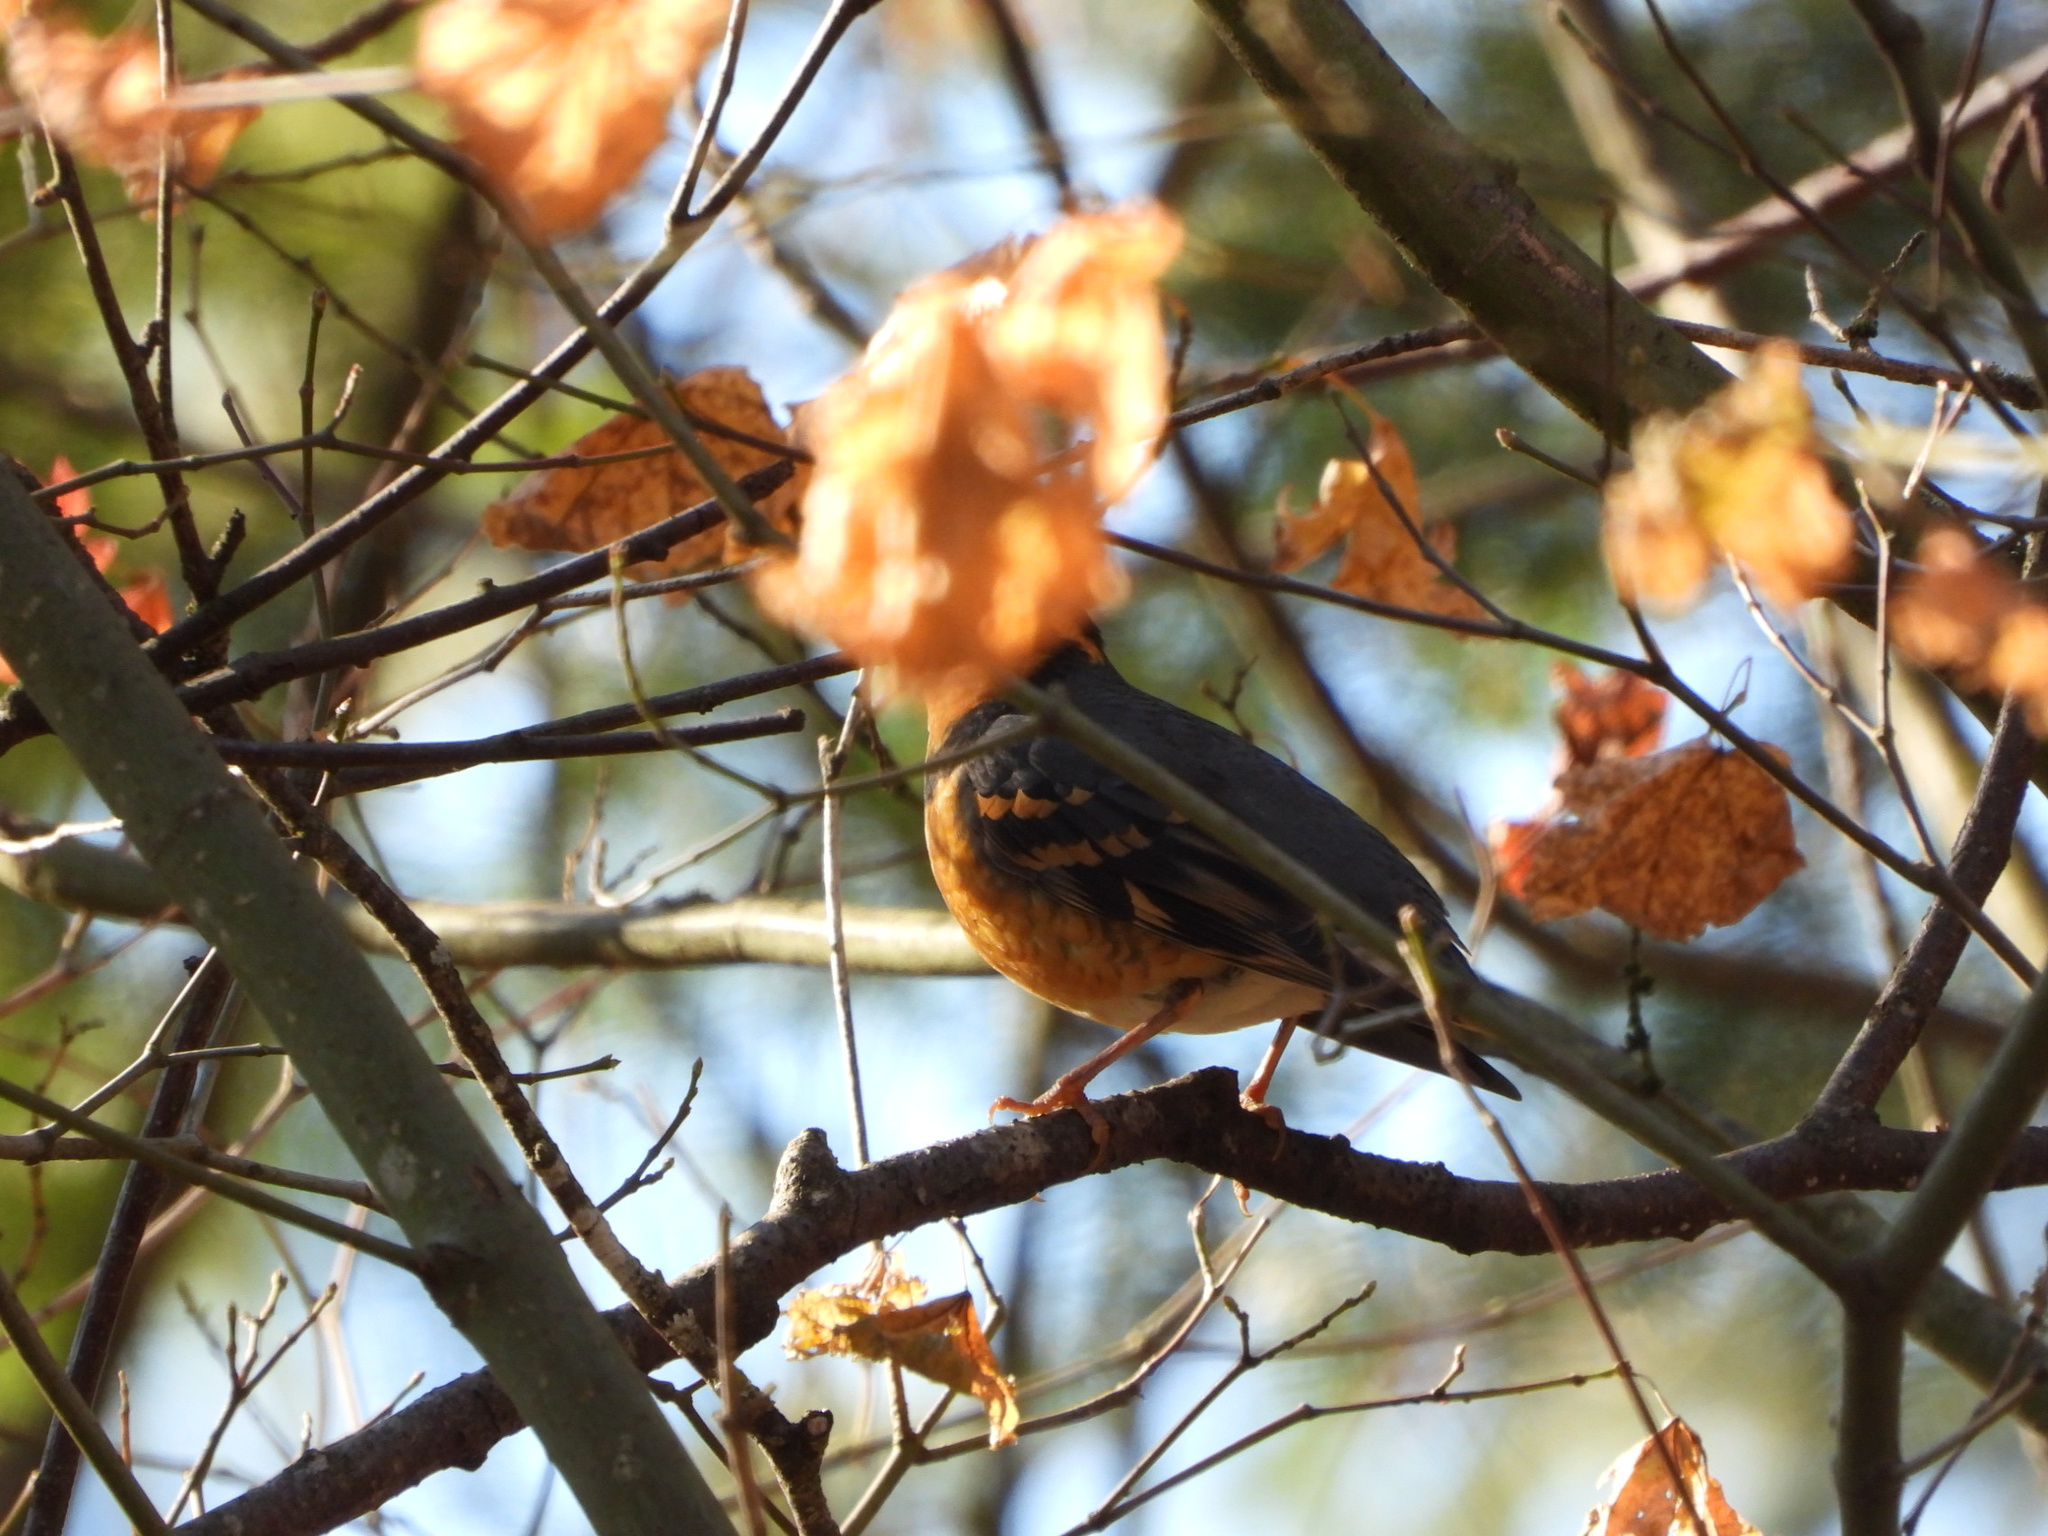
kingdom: Animalia
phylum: Chordata
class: Aves
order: Passeriformes
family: Turdidae
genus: Ixoreus
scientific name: Ixoreus naevius
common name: Varied thrush
